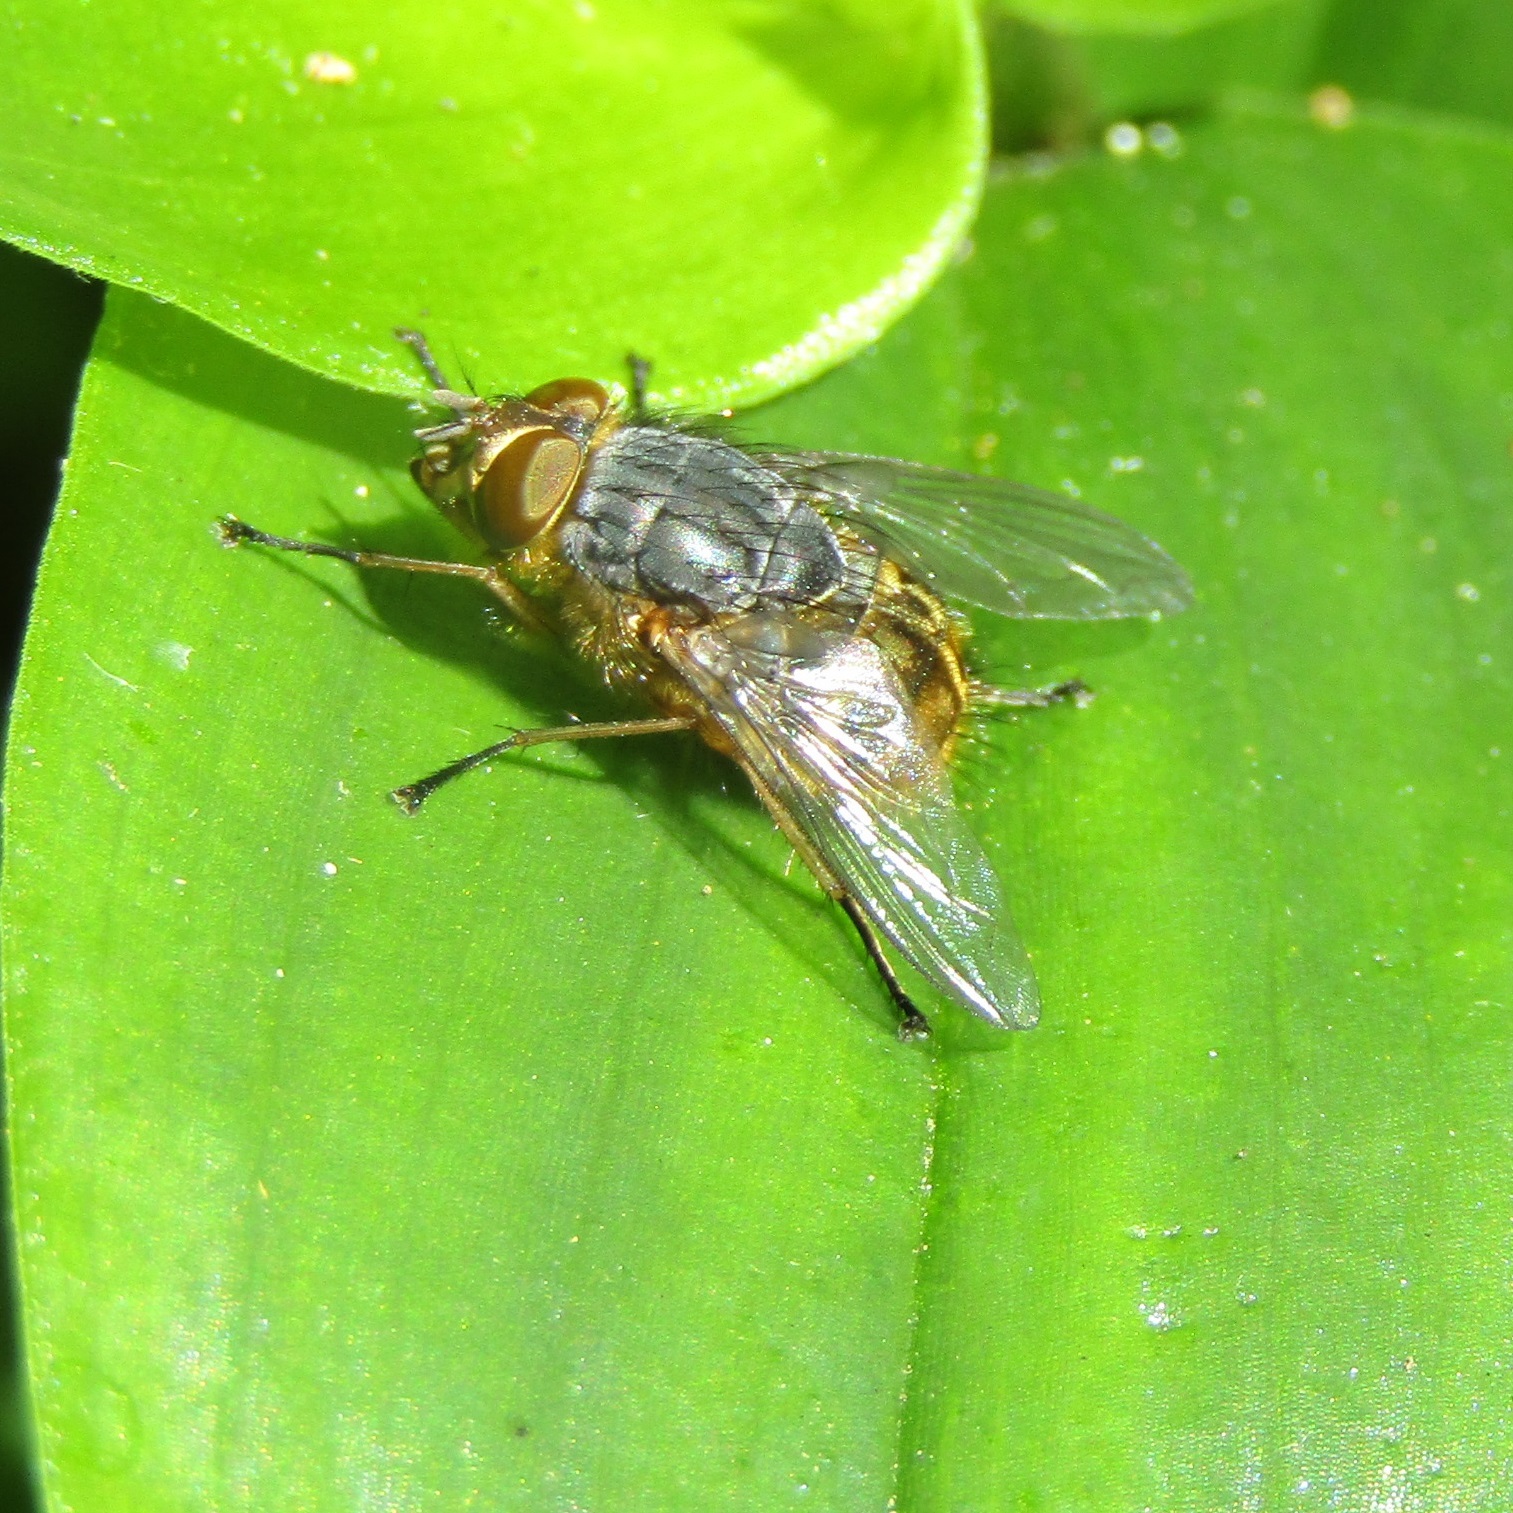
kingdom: Animalia
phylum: Arthropoda
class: Insecta
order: Diptera
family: Calliphoridae
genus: Calliphora
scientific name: Calliphora hilli
